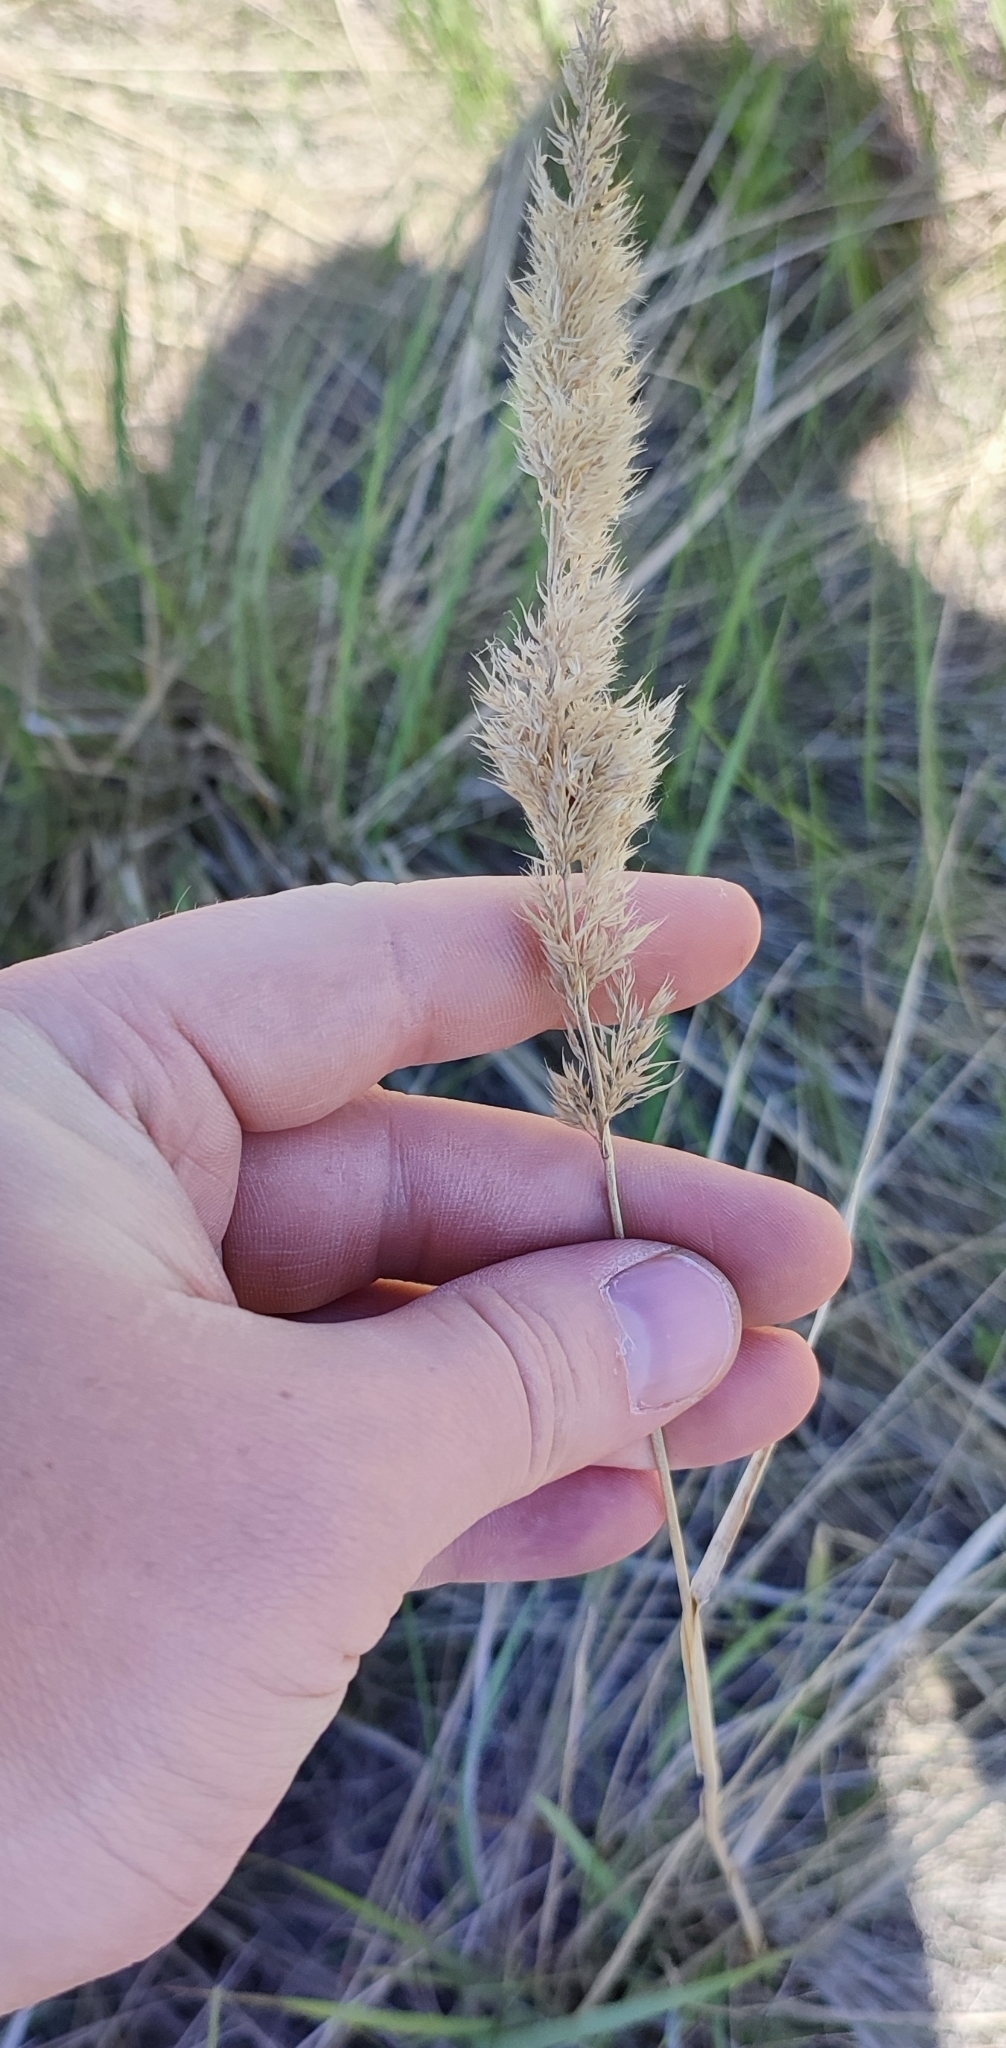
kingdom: Plantae
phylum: Tracheophyta
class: Liliopsida
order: Poales
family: Poaceae
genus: Calamagrostis
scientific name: Calamagrostis epigejos
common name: Wood small-reed
